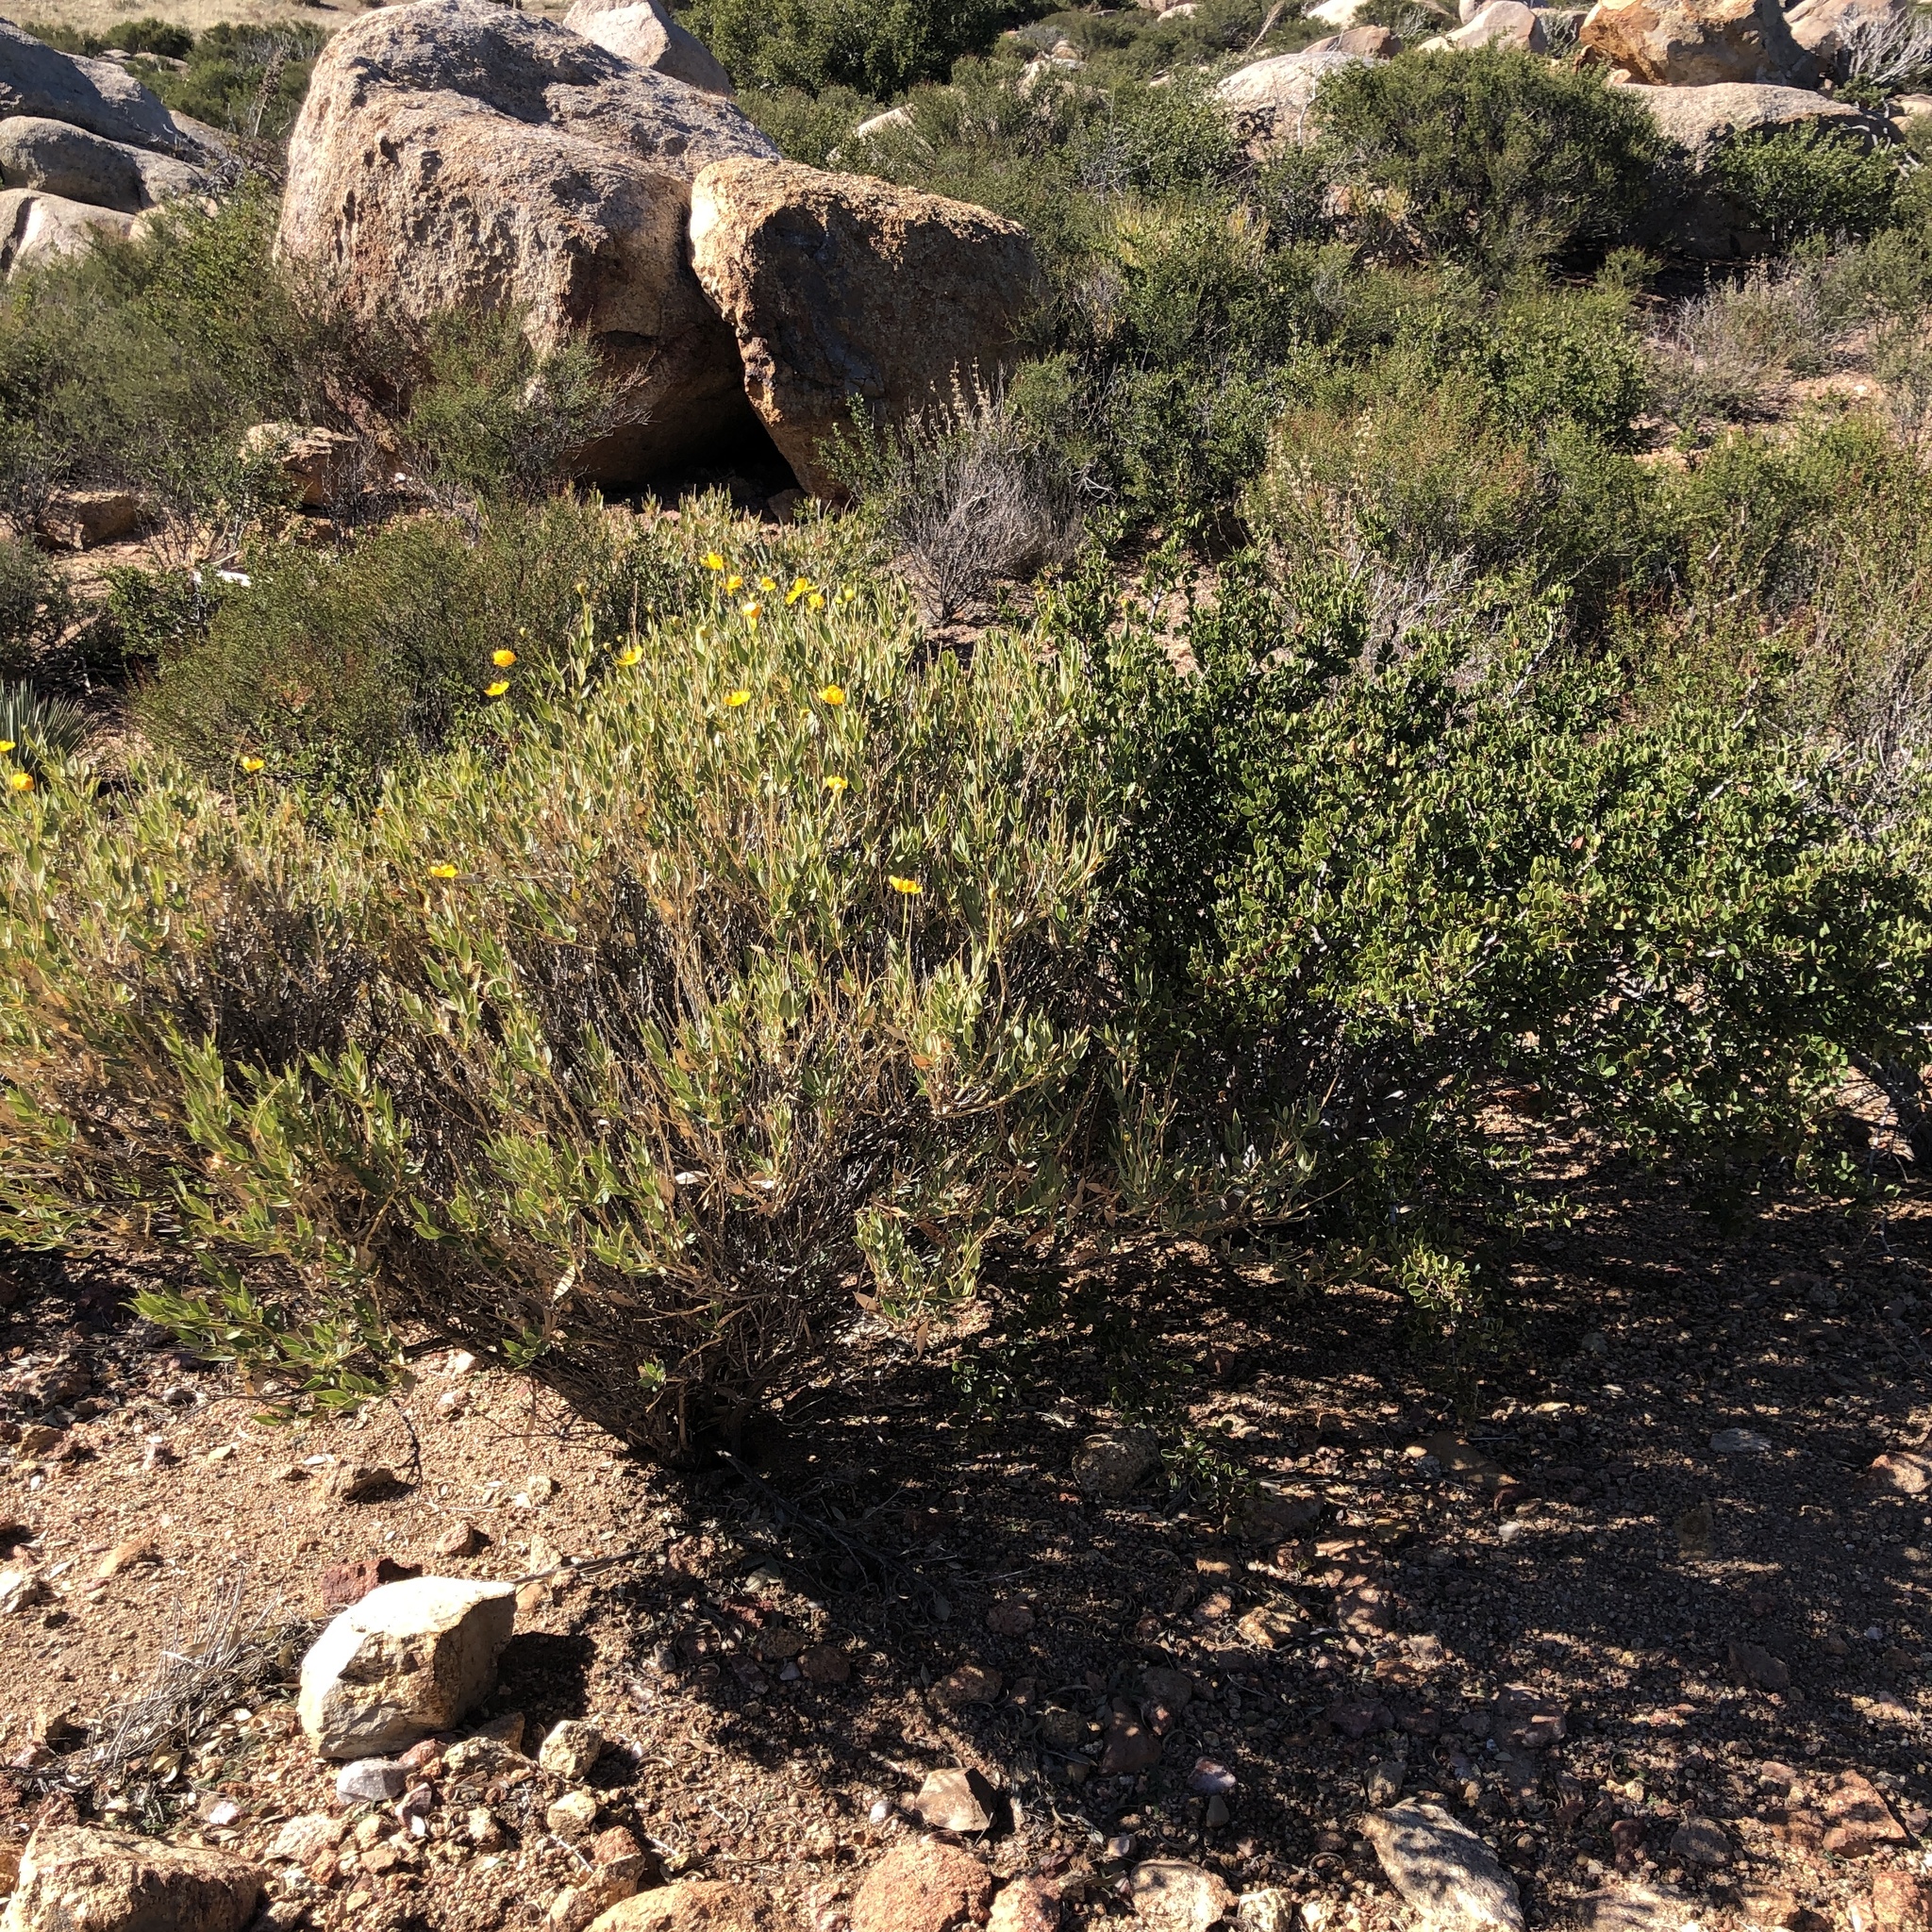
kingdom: Plantae
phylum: Tracheophyta
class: Magnoliopsida
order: Ranunculales
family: Papaveraceae
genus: Dendromecon
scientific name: Dendromecon rigida
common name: Tree poppy
